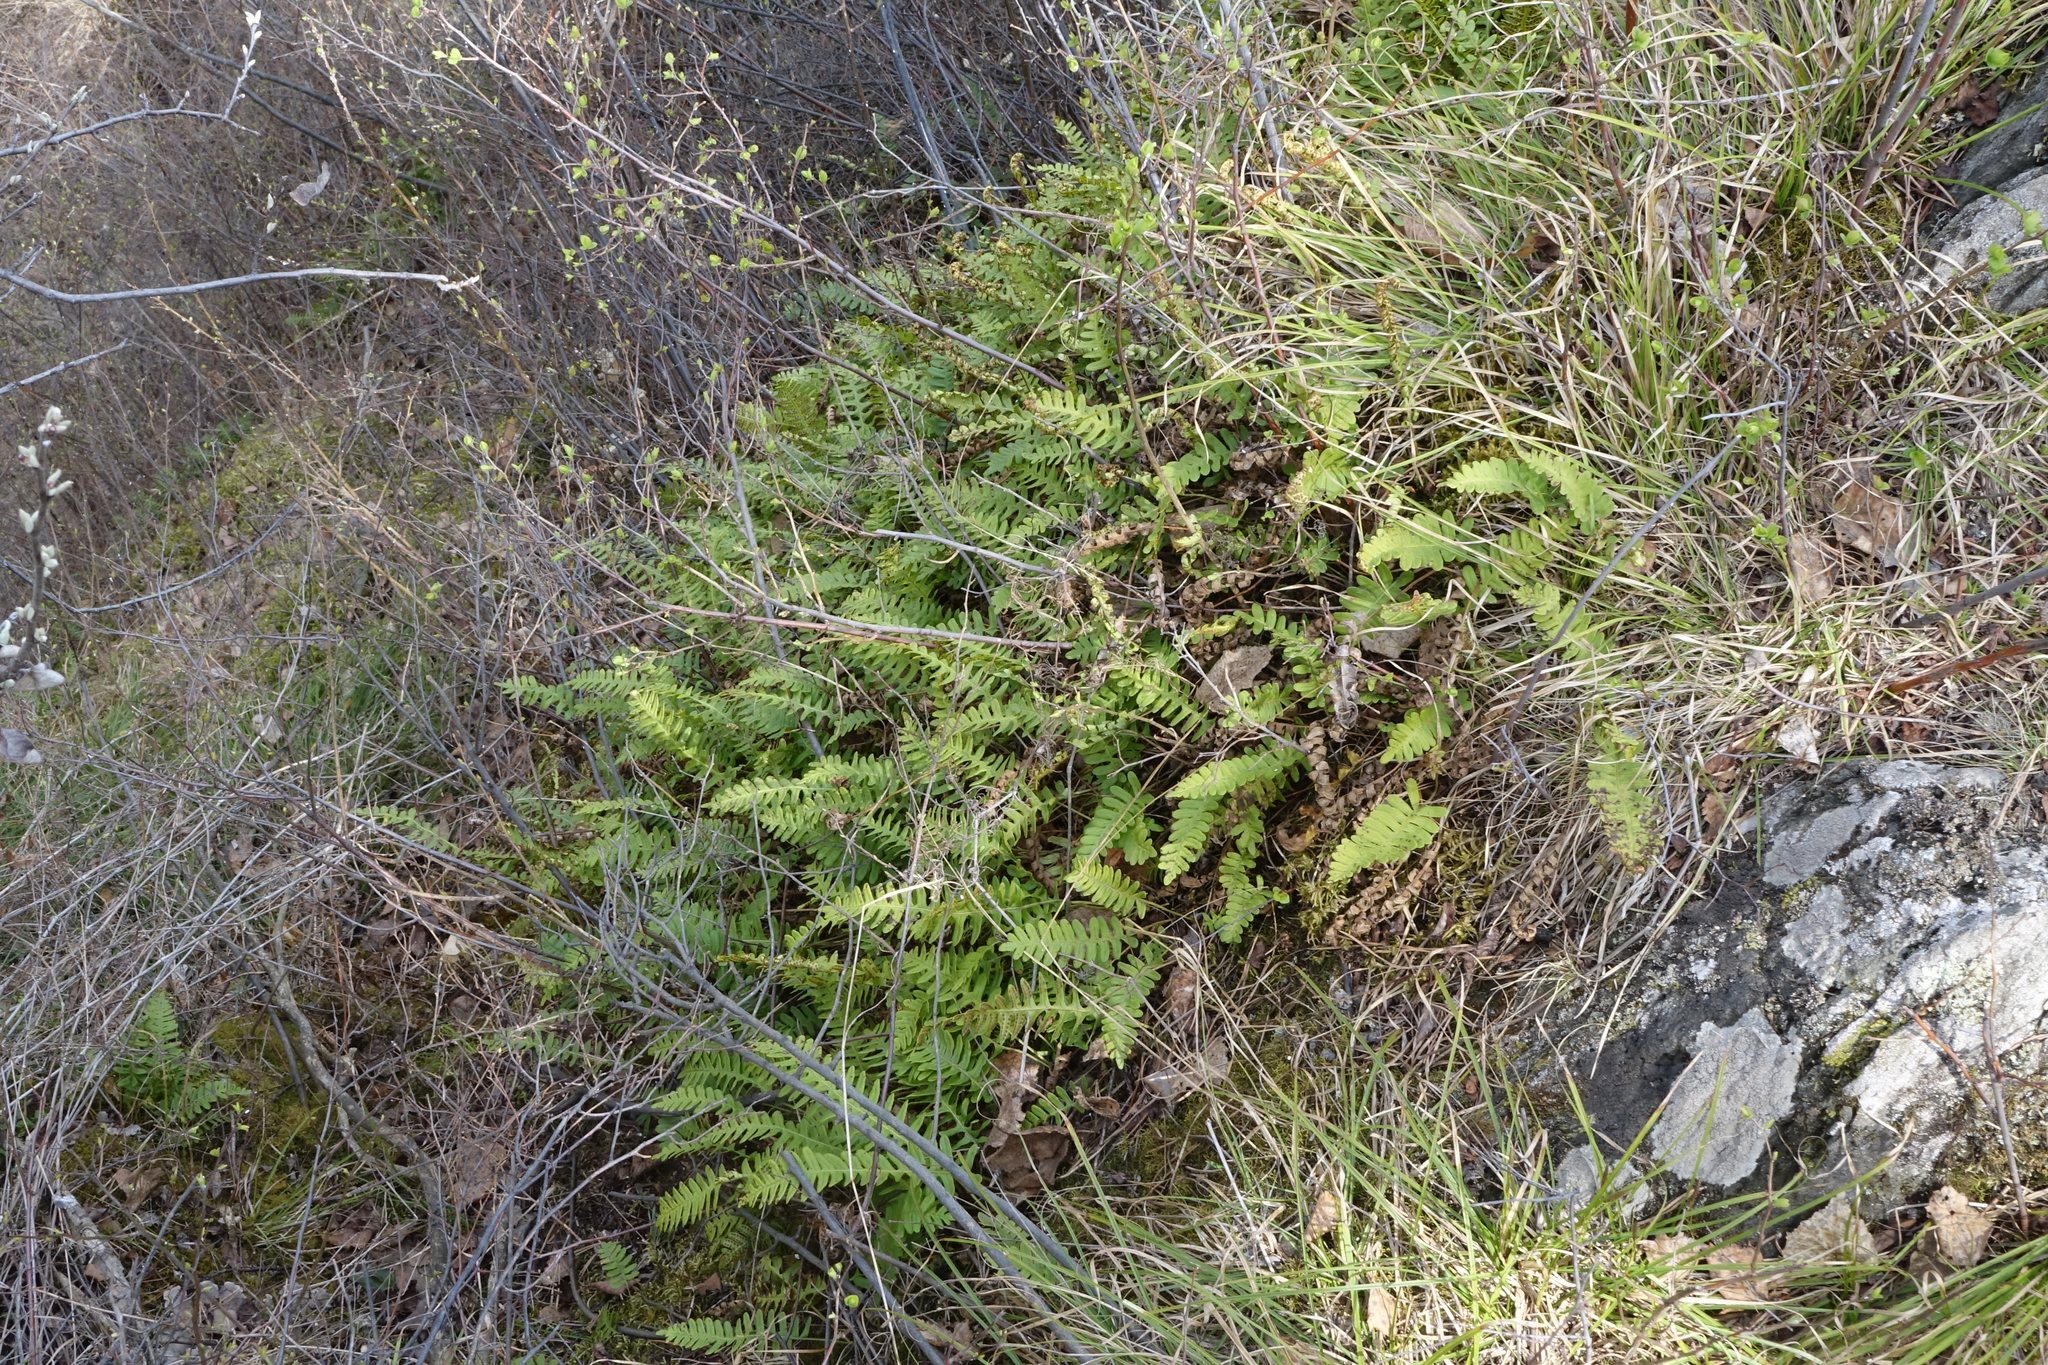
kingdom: Plantae
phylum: Tracheophyta
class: Polypodiopsida
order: Polypodiales
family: Polypodiaceae
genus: Polypodium
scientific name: Polypodium sibiricum
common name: Siberian polypody
